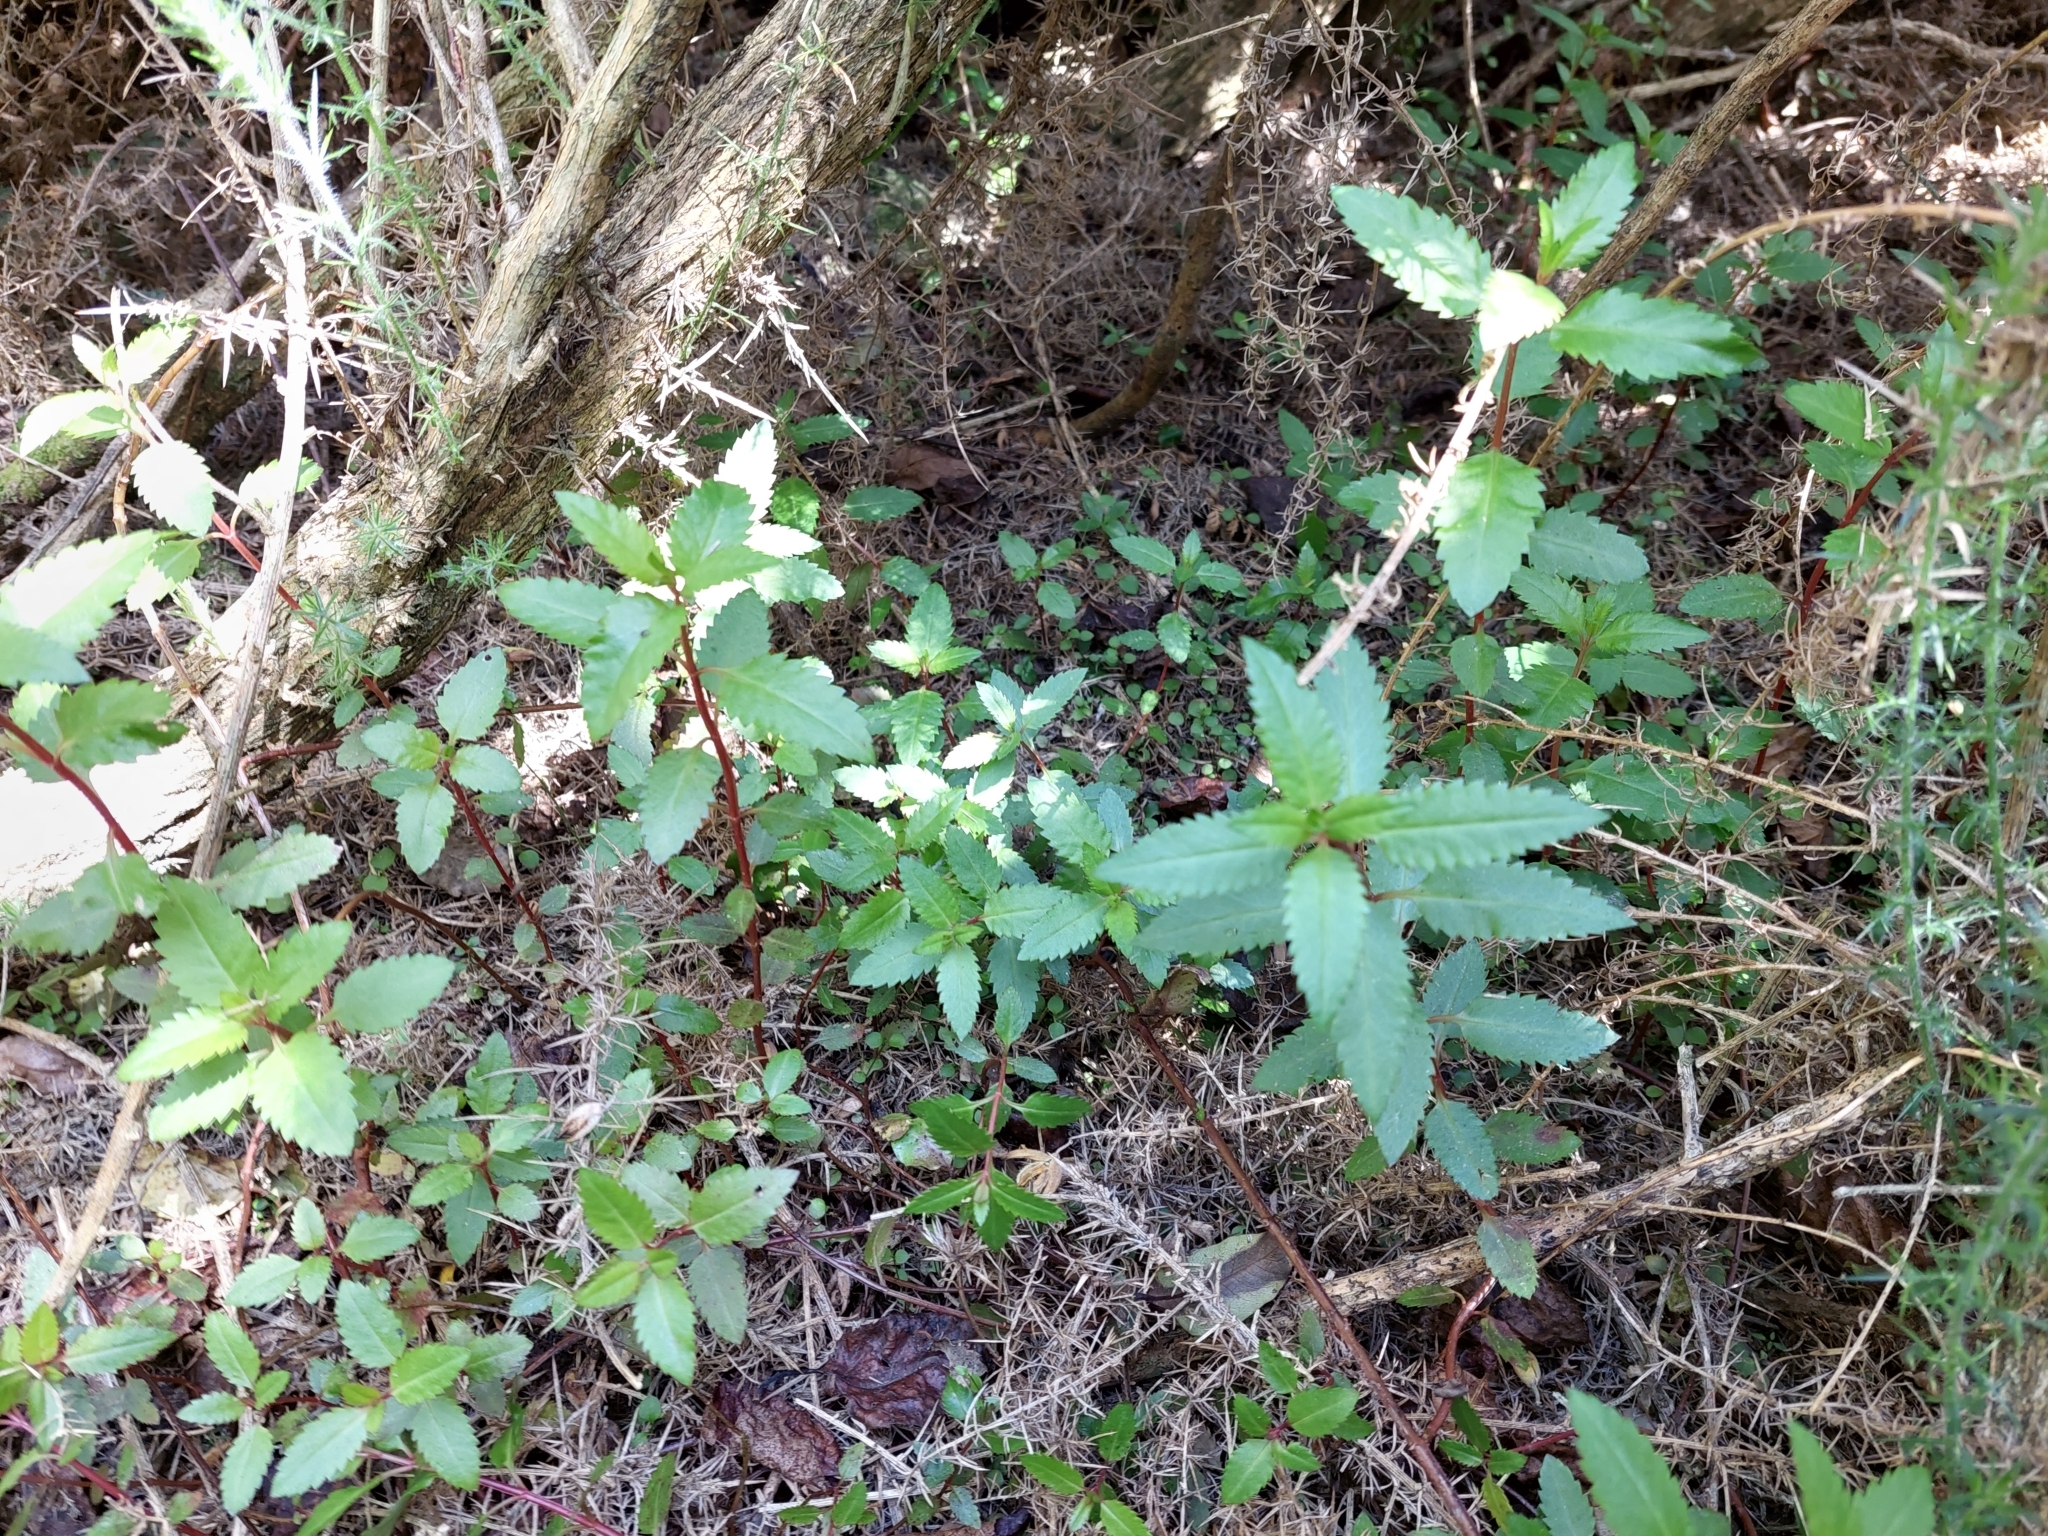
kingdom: Plantae
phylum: Tracheophyta
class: Magnoliopsida
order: Saxifragales
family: Haloragaceae
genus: Haloragis
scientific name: Haloragis erecta
